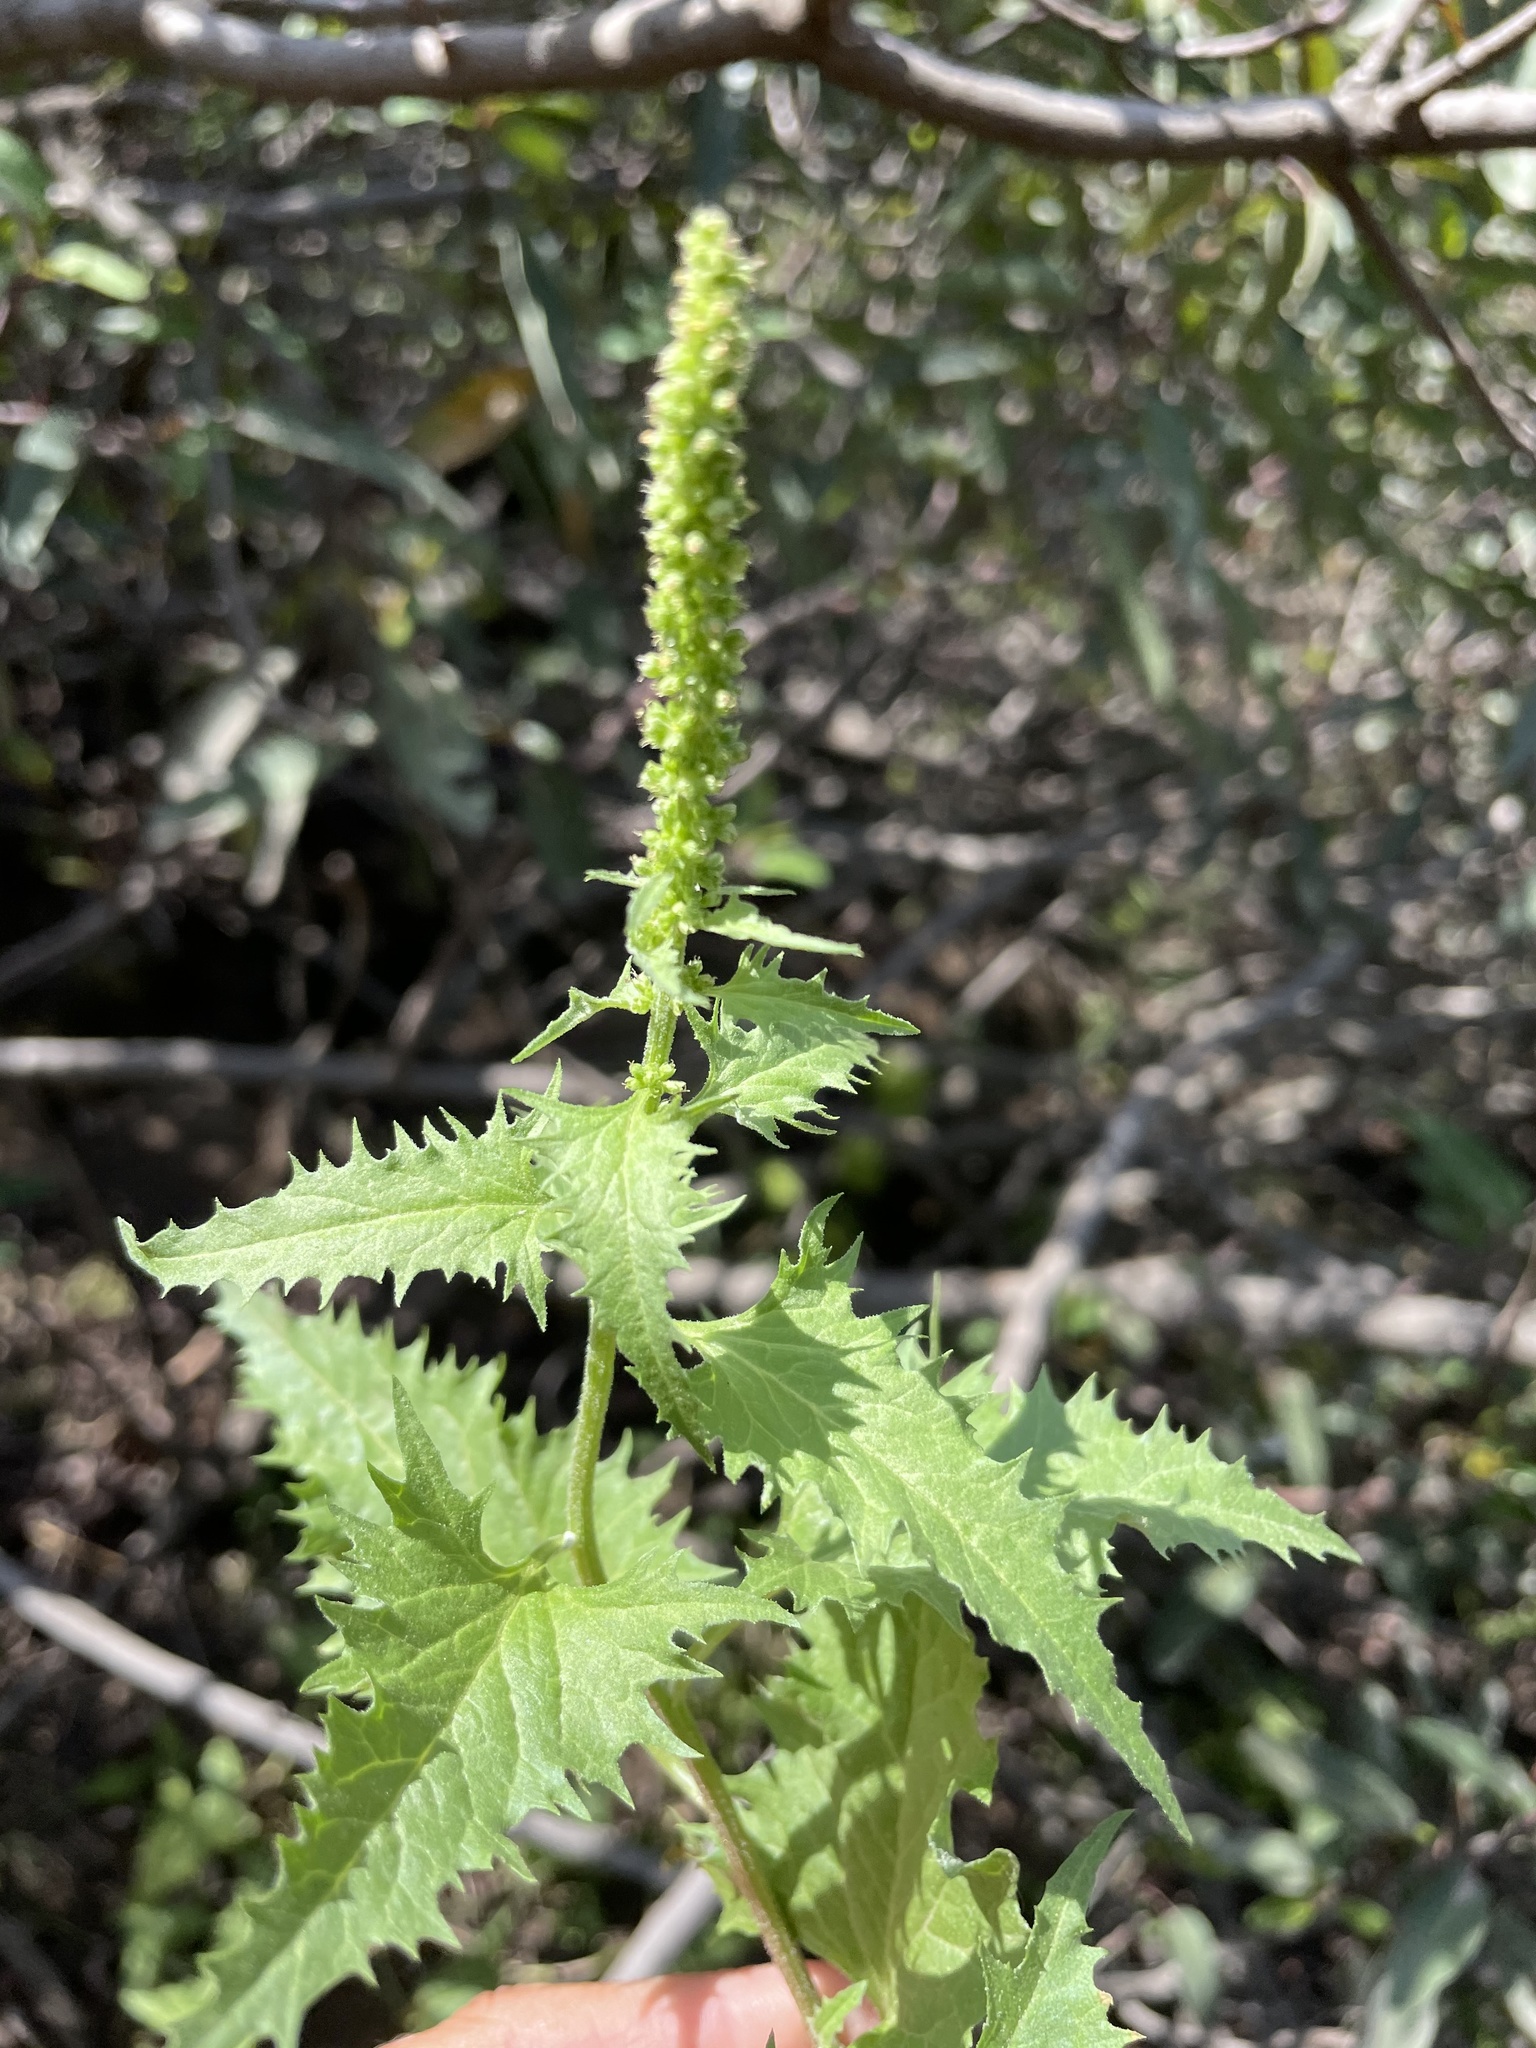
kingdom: Plantae
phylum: Tracheophyta
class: Magnoliopsida
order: Caryophyllales
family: Amaranthaceae
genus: Blitum
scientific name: Blitum californicum
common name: California goosefoot
